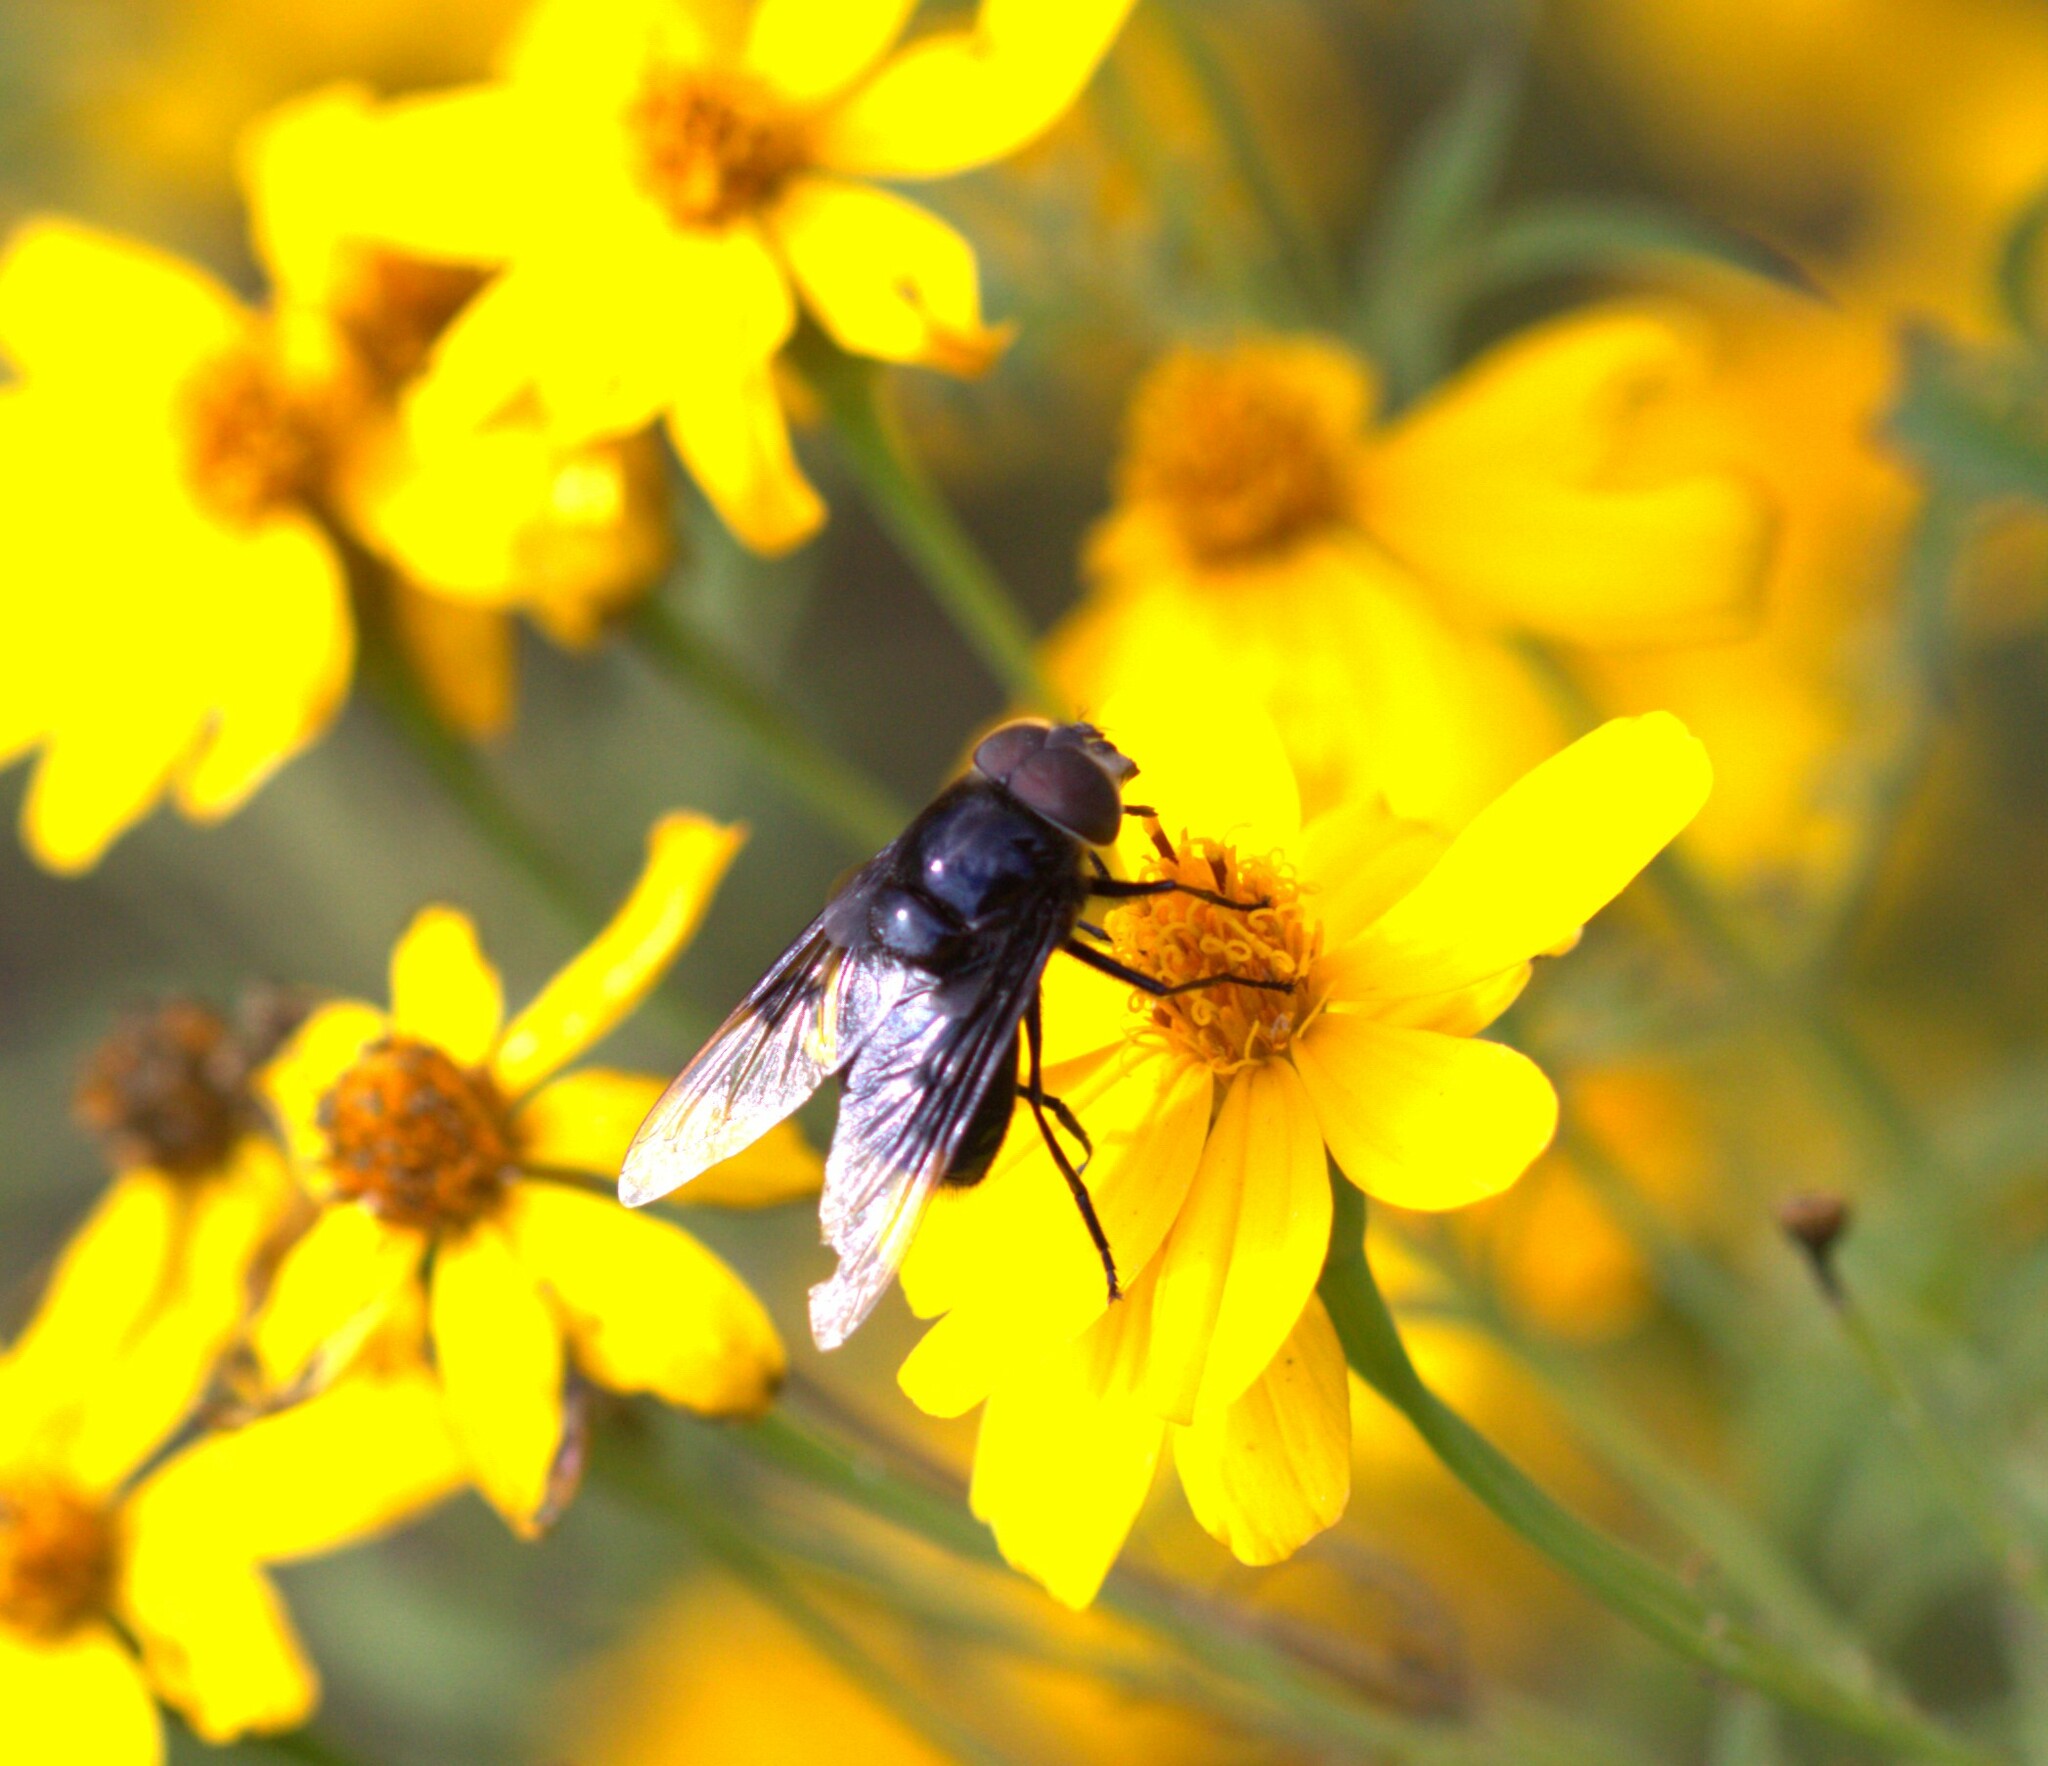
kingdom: Animalia
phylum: Arthropoda
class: Insecta
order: Diptera
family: Syrphidae
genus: Copestylum
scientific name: Copestylum mexicanum
